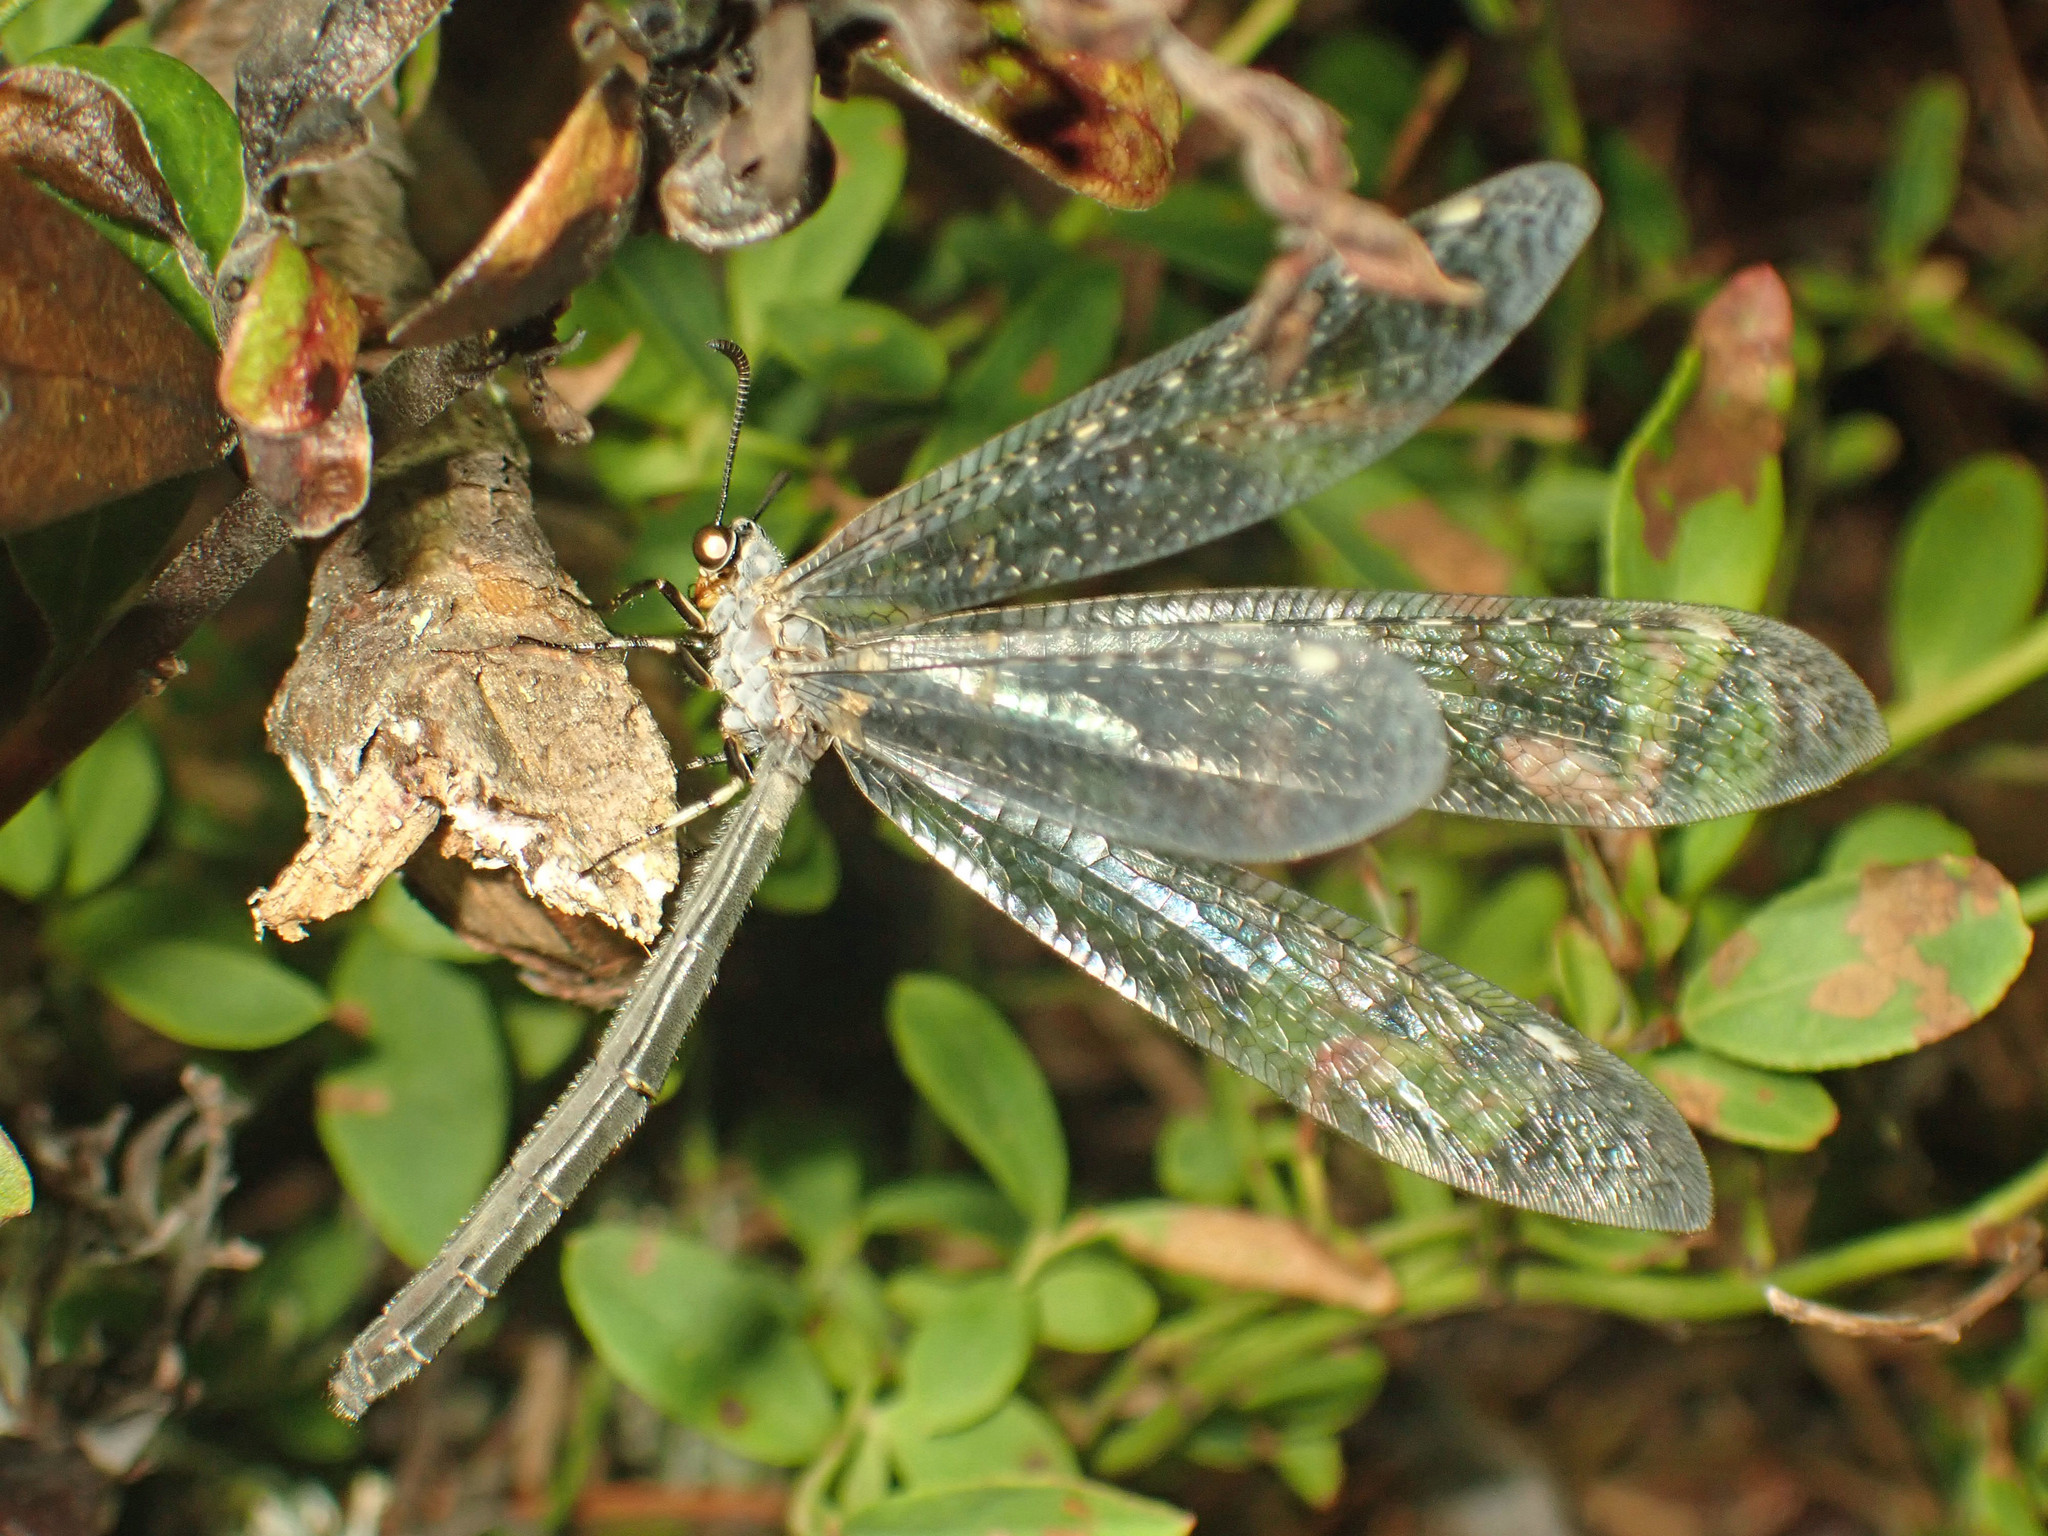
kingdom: Animalia
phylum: Arthropoda
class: Insecta
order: Neuroptera
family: Myrmeleontidae
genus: Myrmeleon
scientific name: Myrmeleon immaculatus
